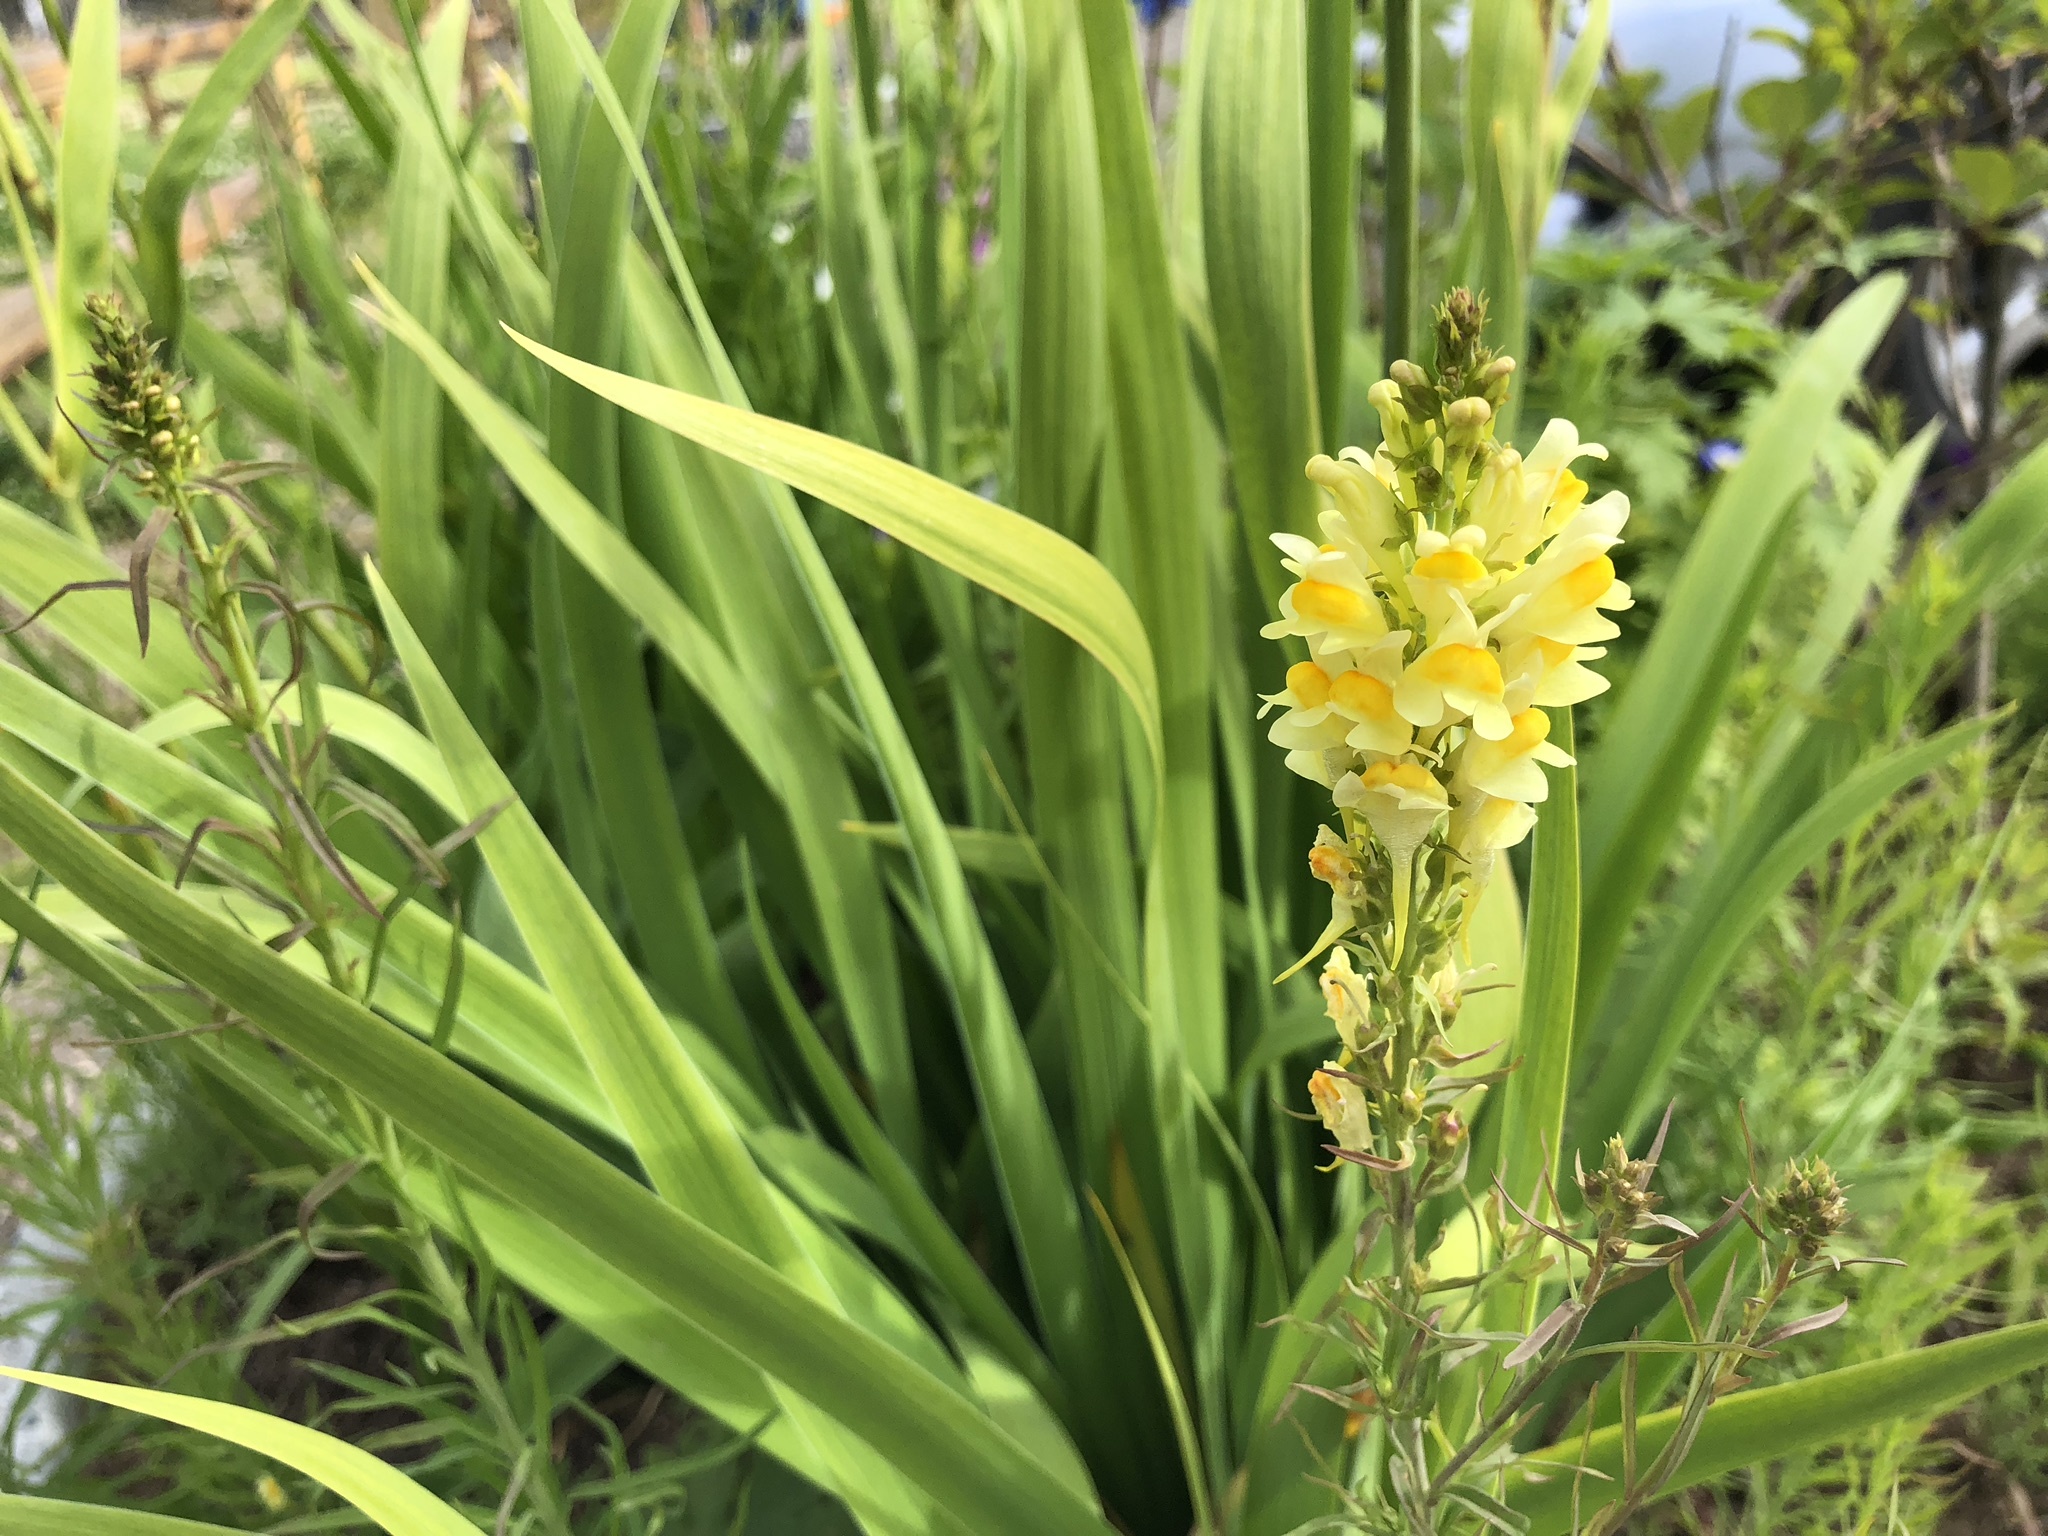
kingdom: Plantae
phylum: Tracheophyta
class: Magnoliopsida
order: Lamiales
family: Plantaginaceae
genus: Linaria
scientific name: Linaria vulgaris
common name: Butter and eggs
